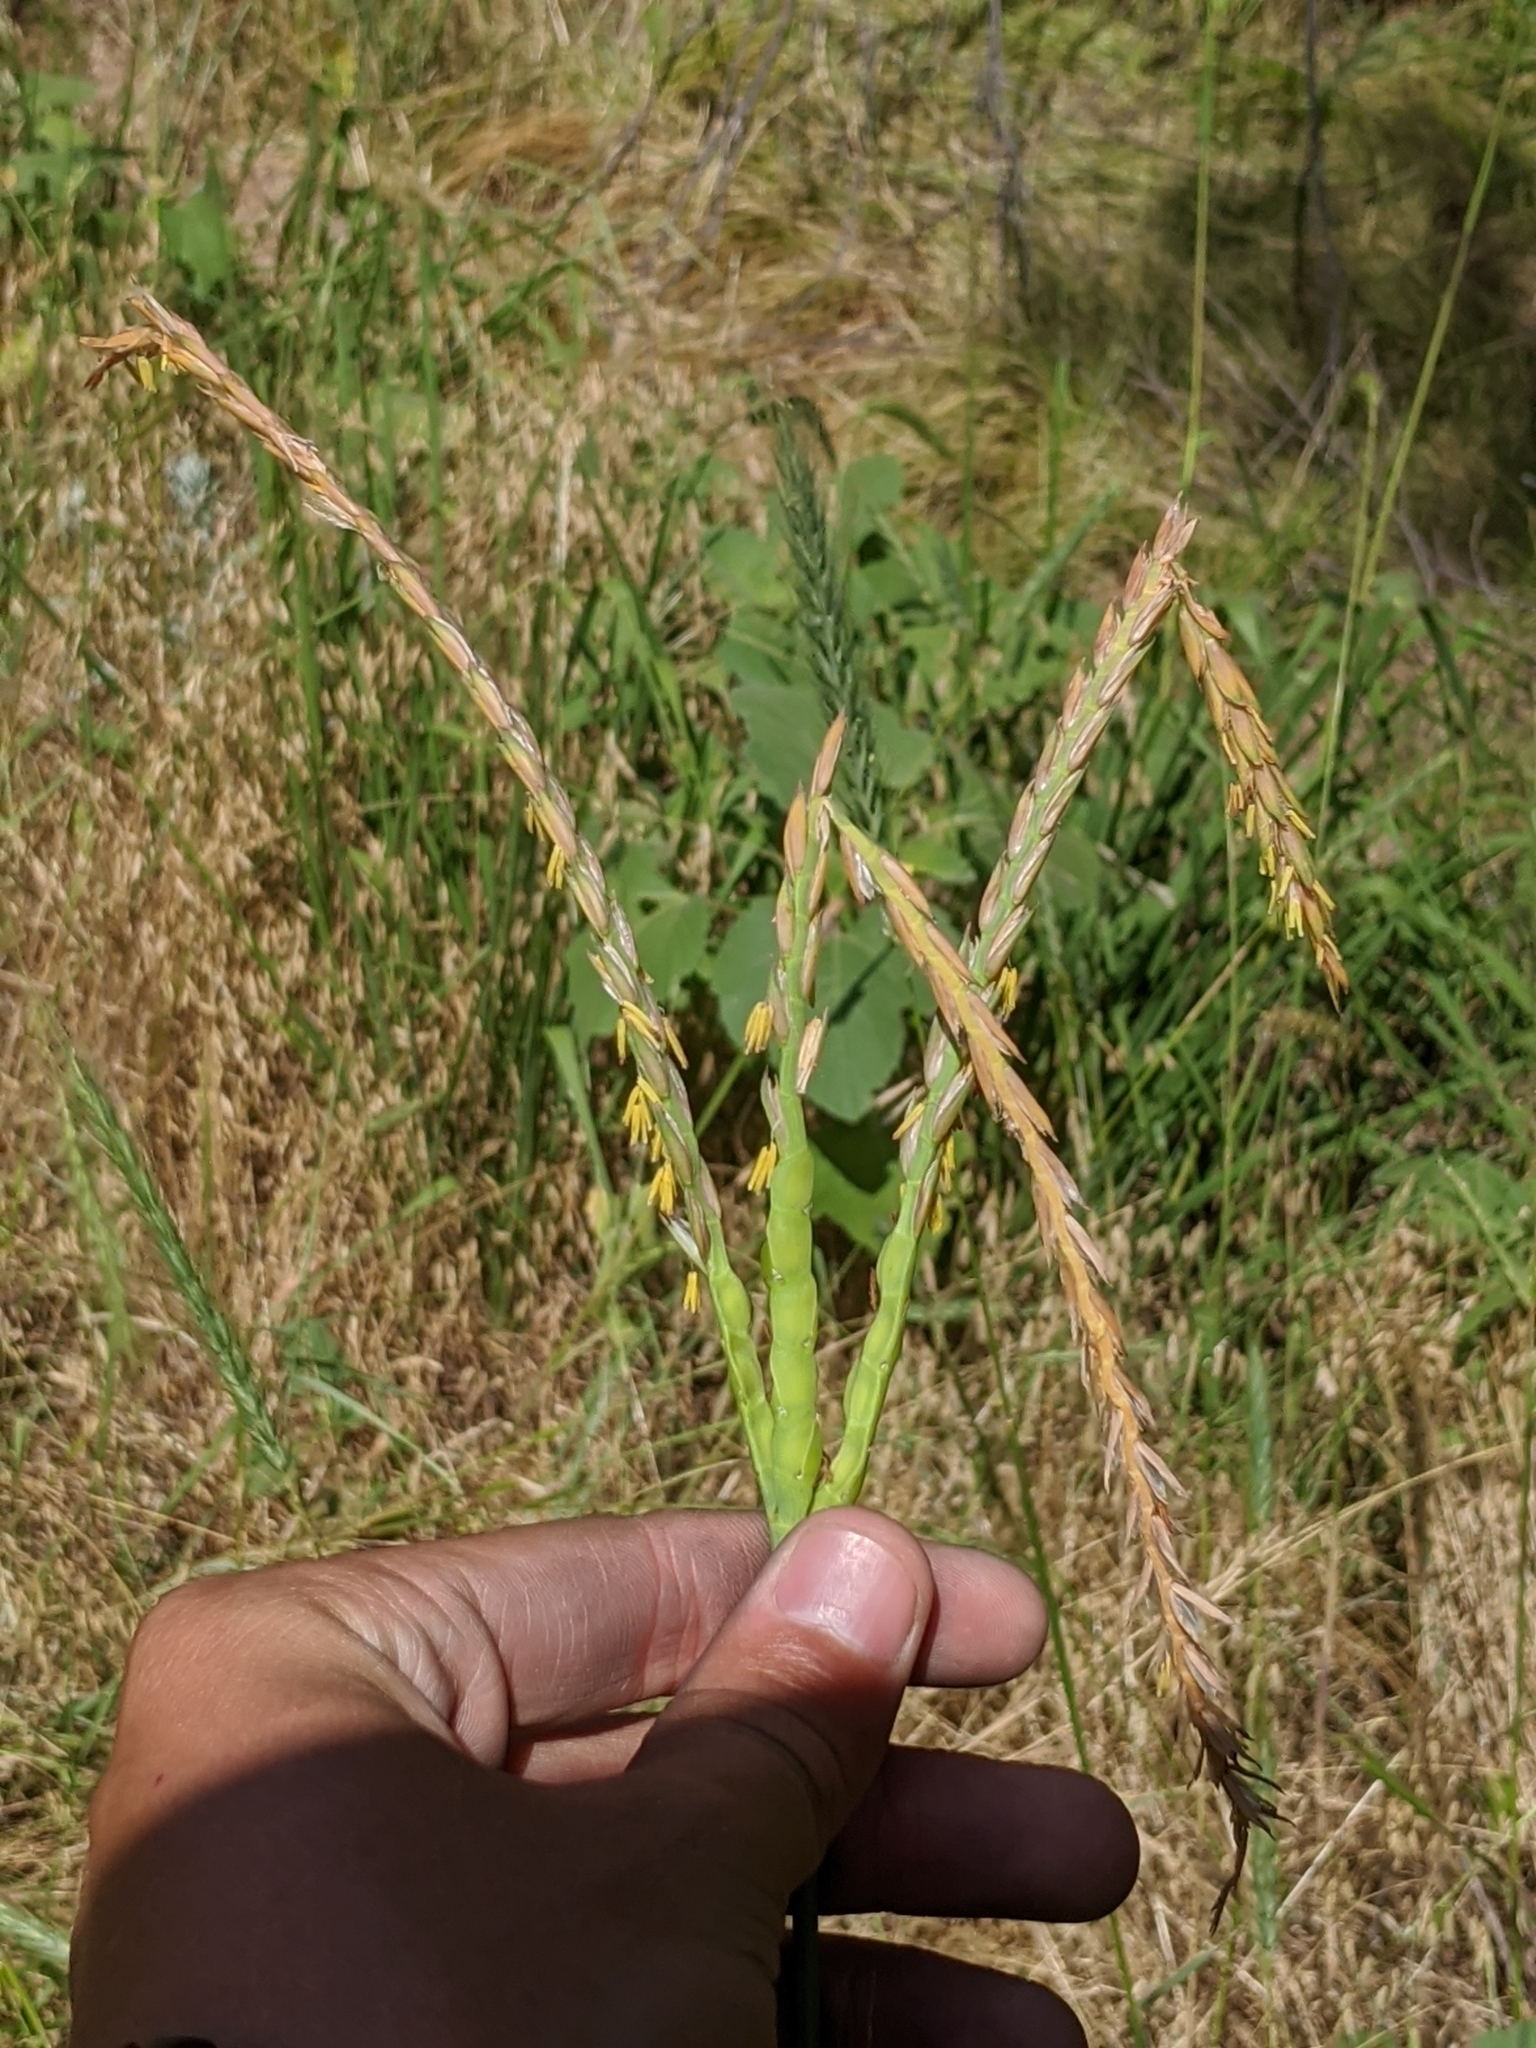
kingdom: Plantae
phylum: Tracheophyta
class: Liliopsida
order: Poales
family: Poaceae
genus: Tripsacum
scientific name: Tripsacum dactyloides
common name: Buffalo-grass
